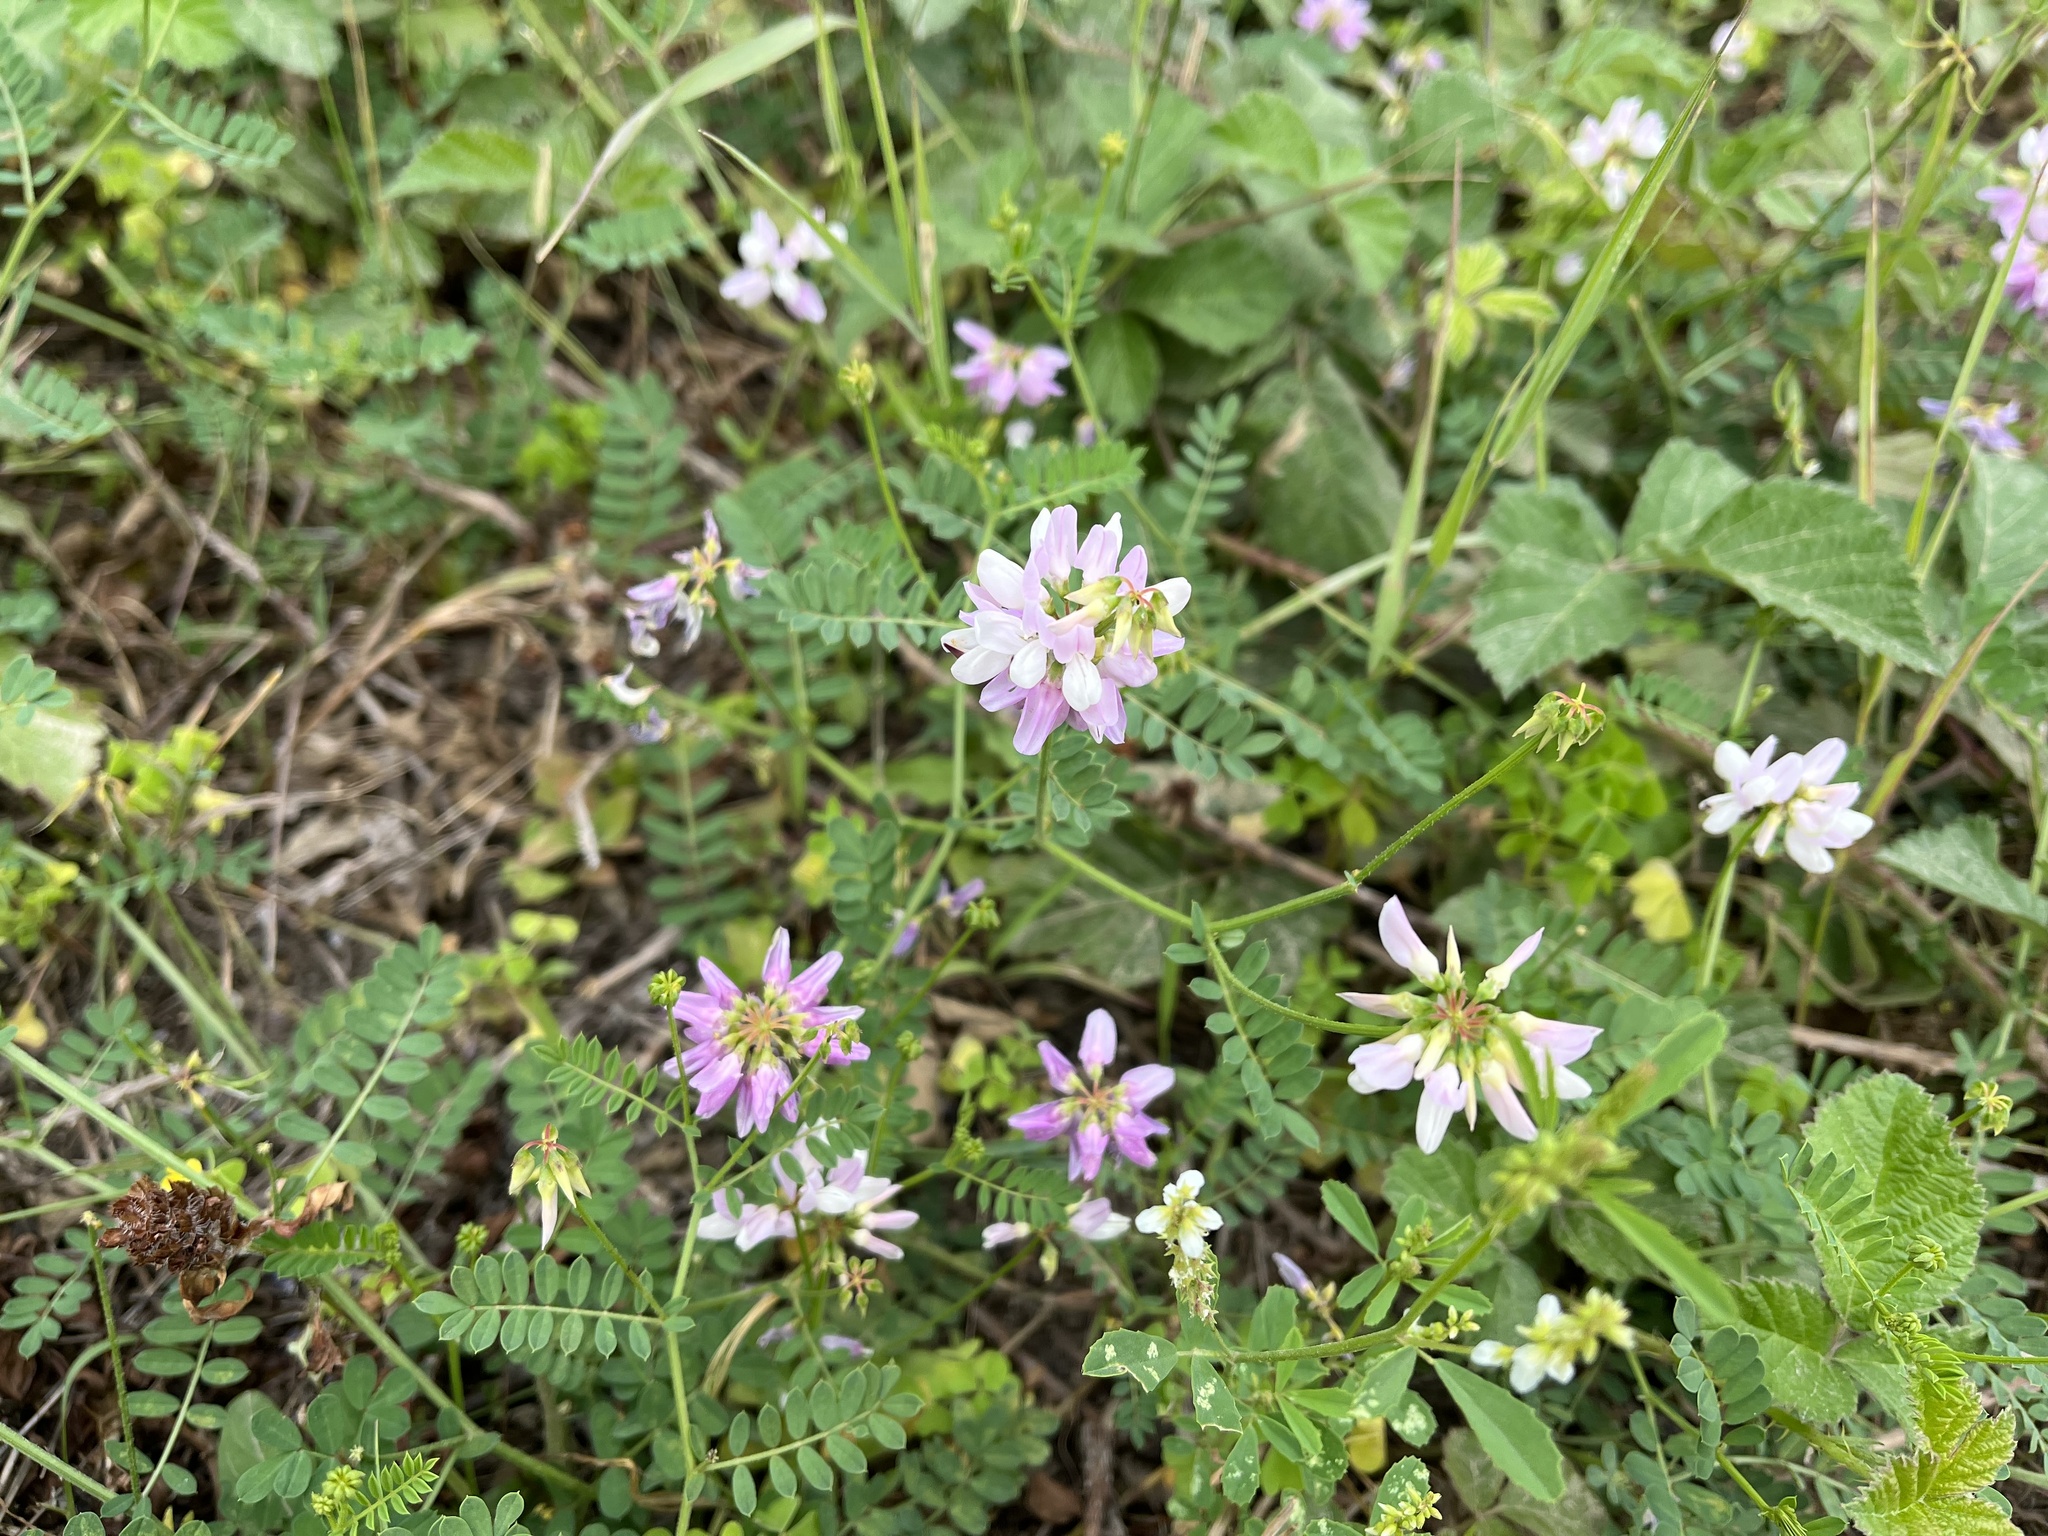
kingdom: Plantae
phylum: Tracheophyta
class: Magnoliopsida
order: Fabales
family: Fabaceae
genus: Coronilla
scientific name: Coronilla varia
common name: Crownvetch
